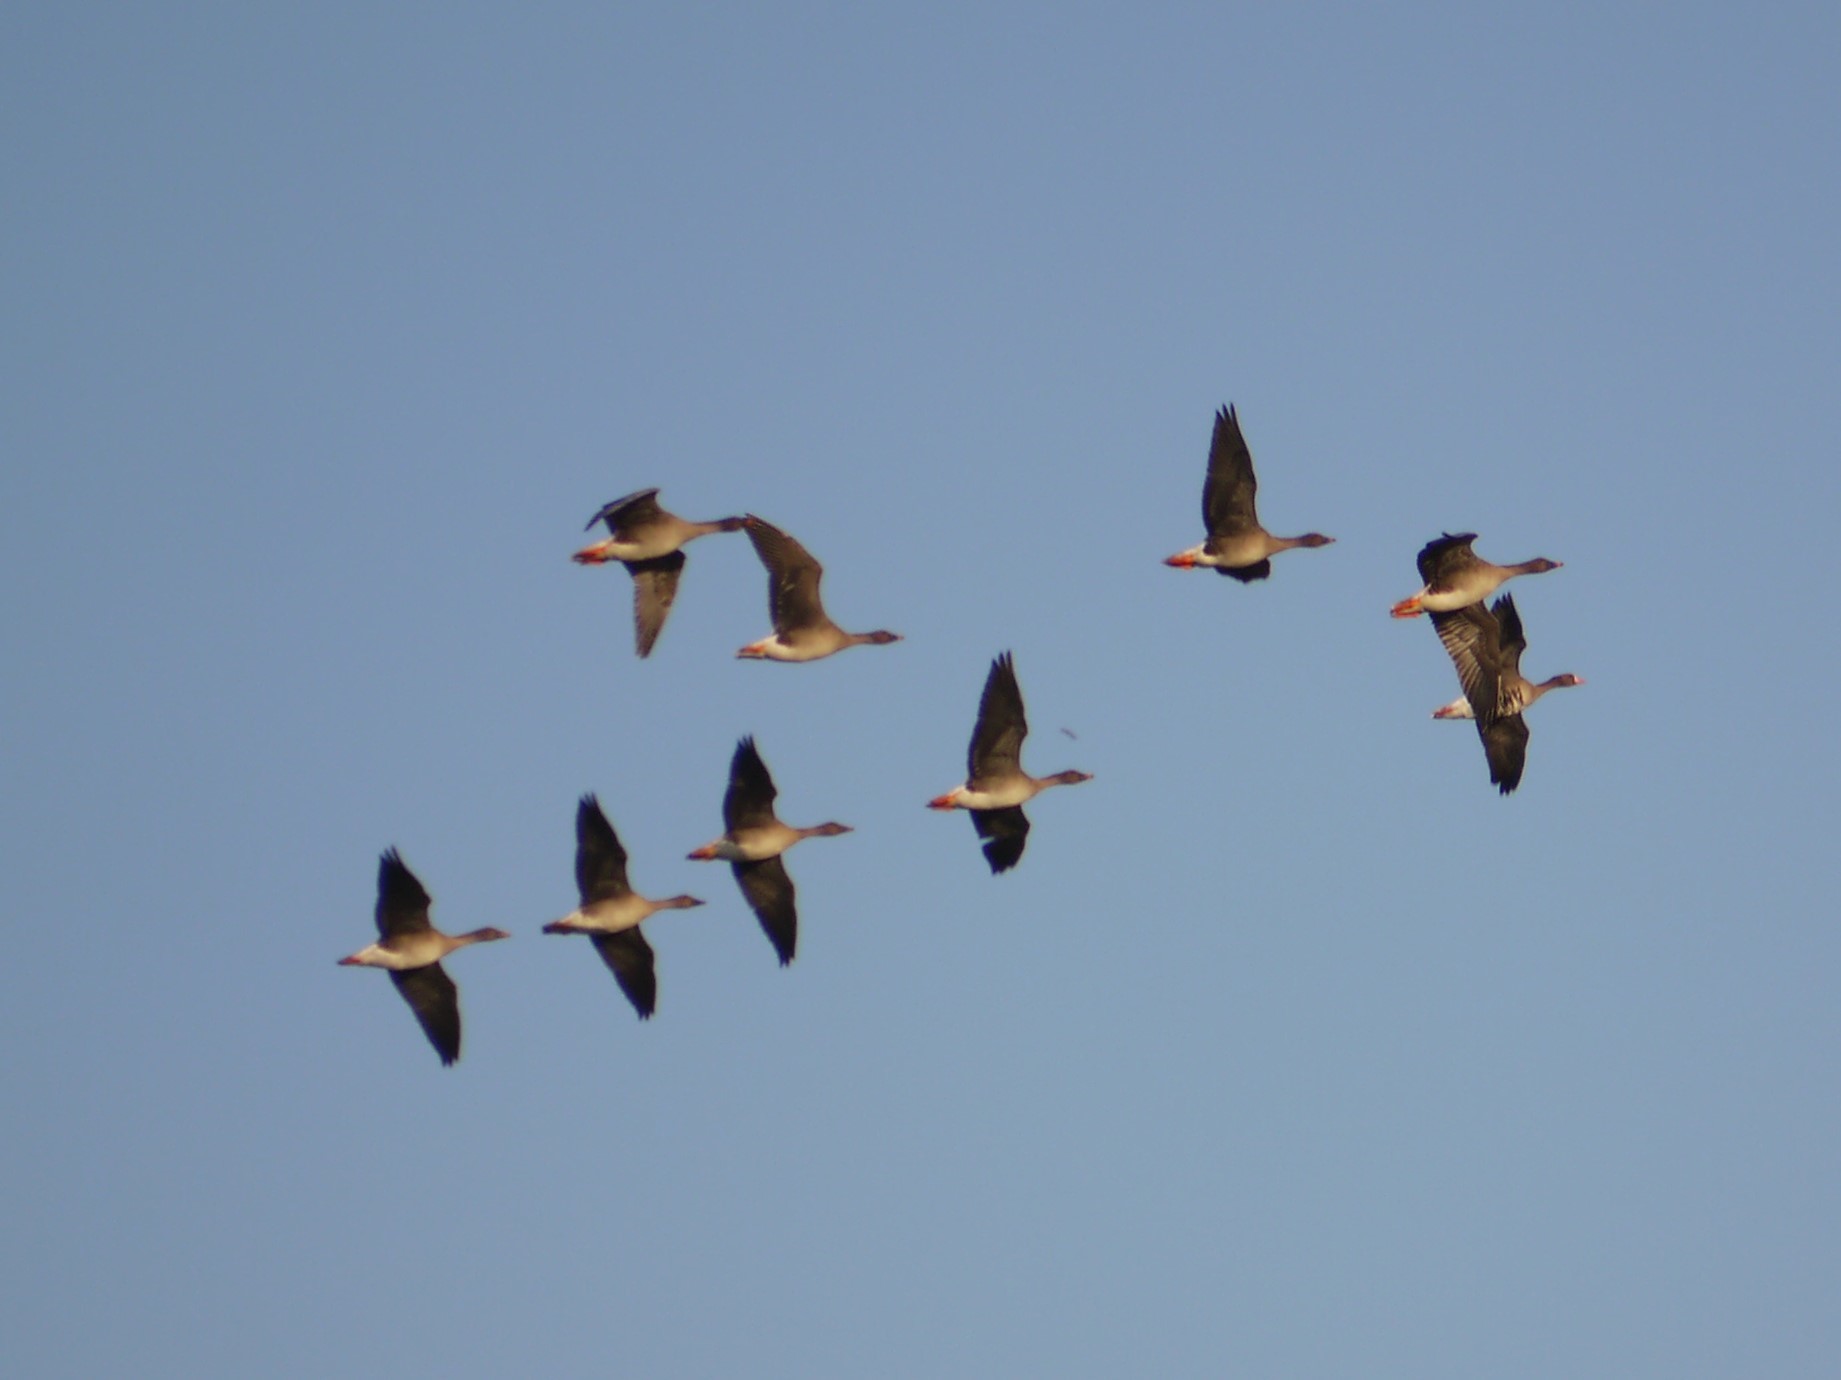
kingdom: Animalia
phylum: Chordata
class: Aves
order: Anseriformes
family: Anatidae
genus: Anser
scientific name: Anser serrirostris
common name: Tundra bean goose
